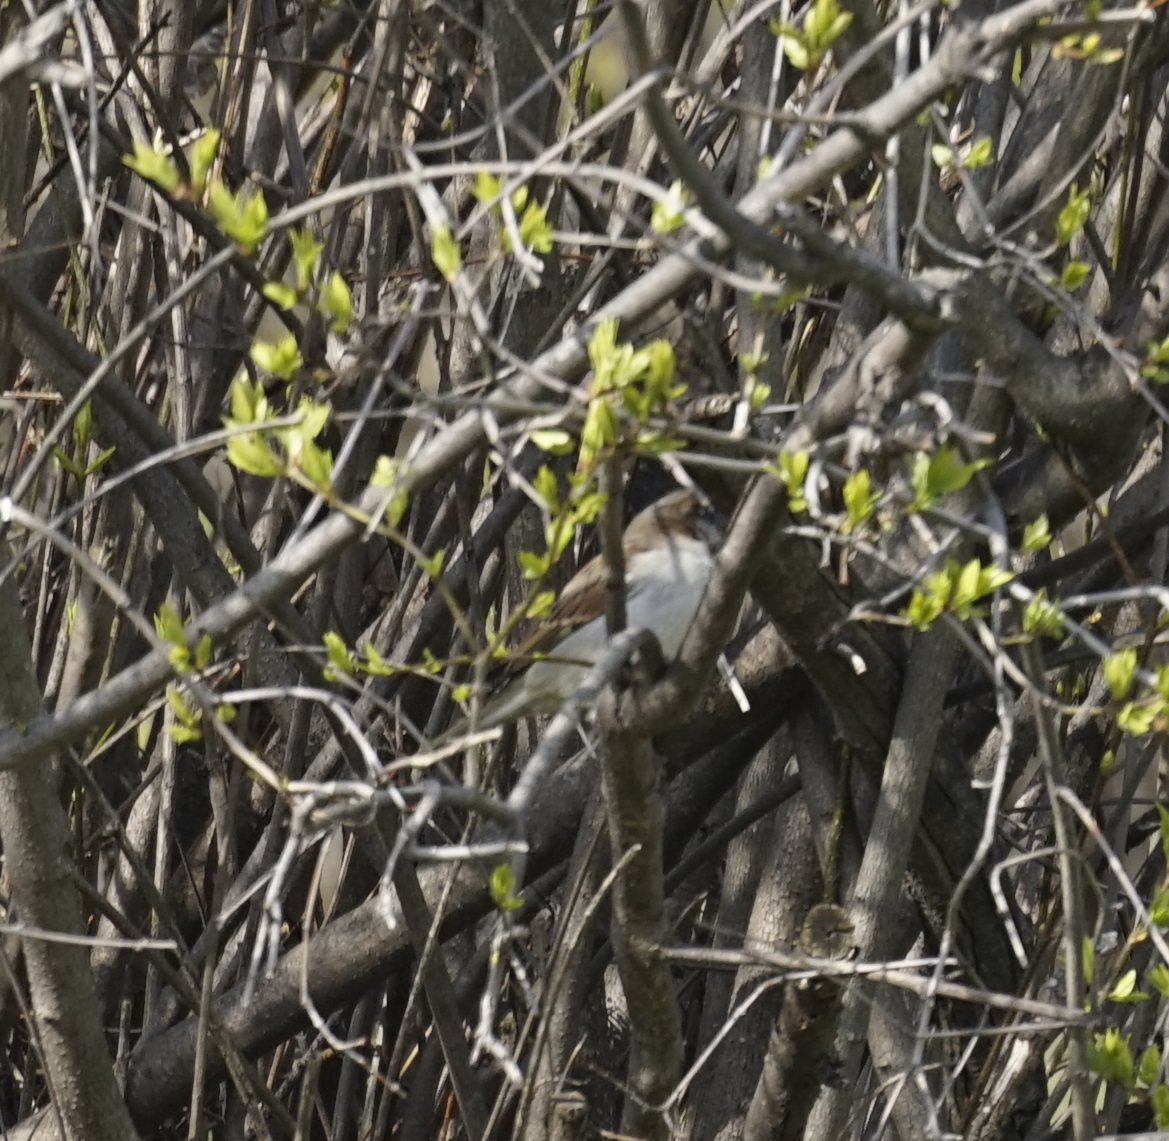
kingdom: Animalia
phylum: Chordata
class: Aves
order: Passeriformes
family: Passeridae
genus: Passer
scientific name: Passer domesticus
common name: House sparrow
